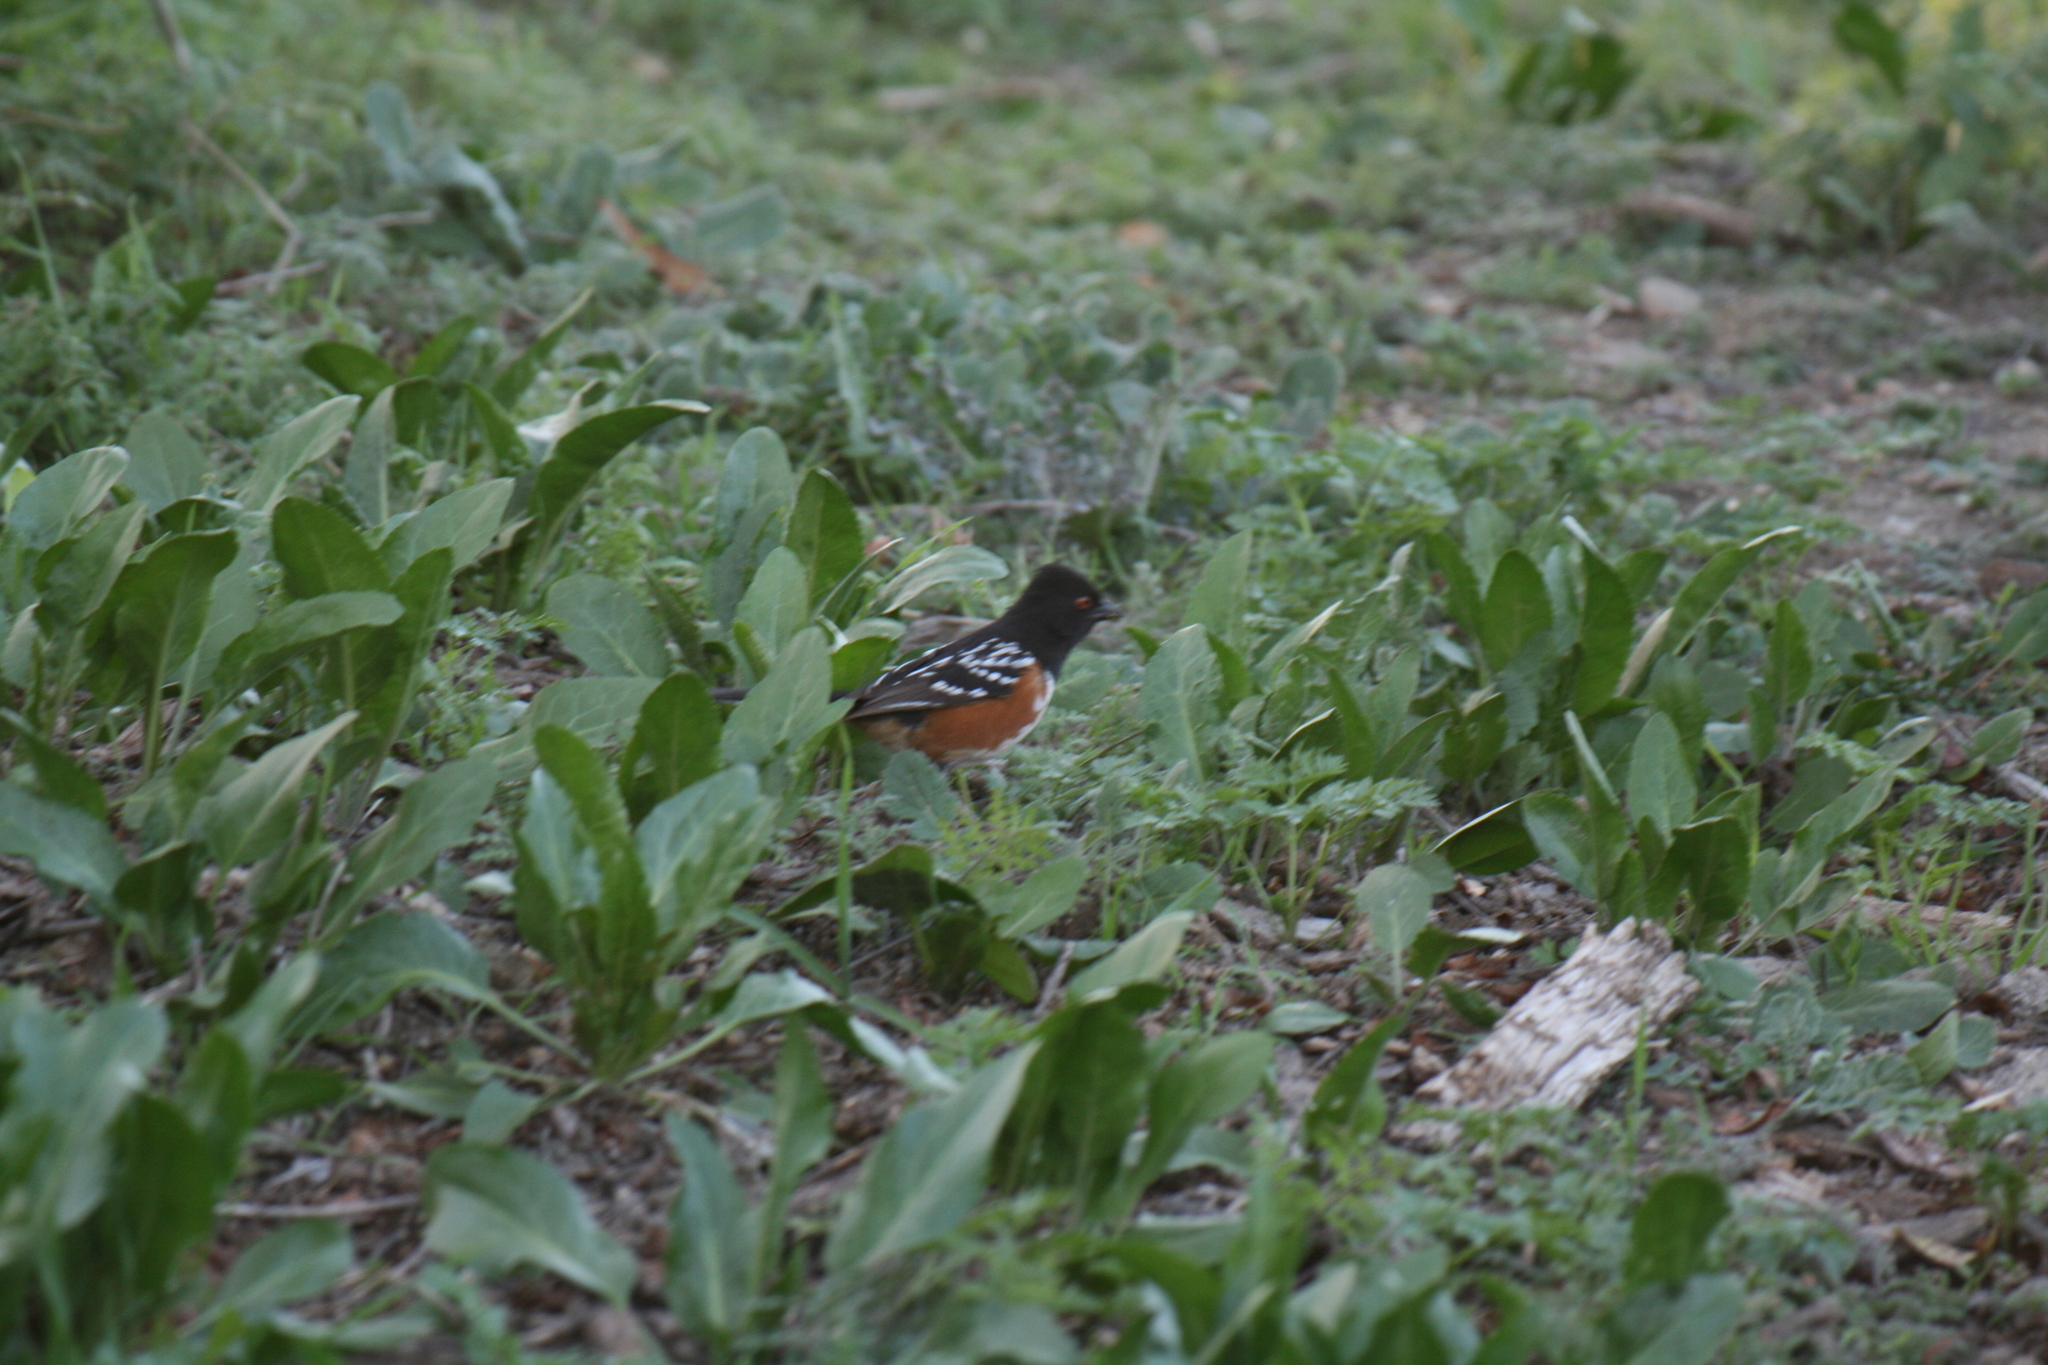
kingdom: Animalia
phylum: Chordata
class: Aves
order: Passeriformes
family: Passerellidae
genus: Pipilo
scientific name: Pipilo maculatus
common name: Spotted towhee
